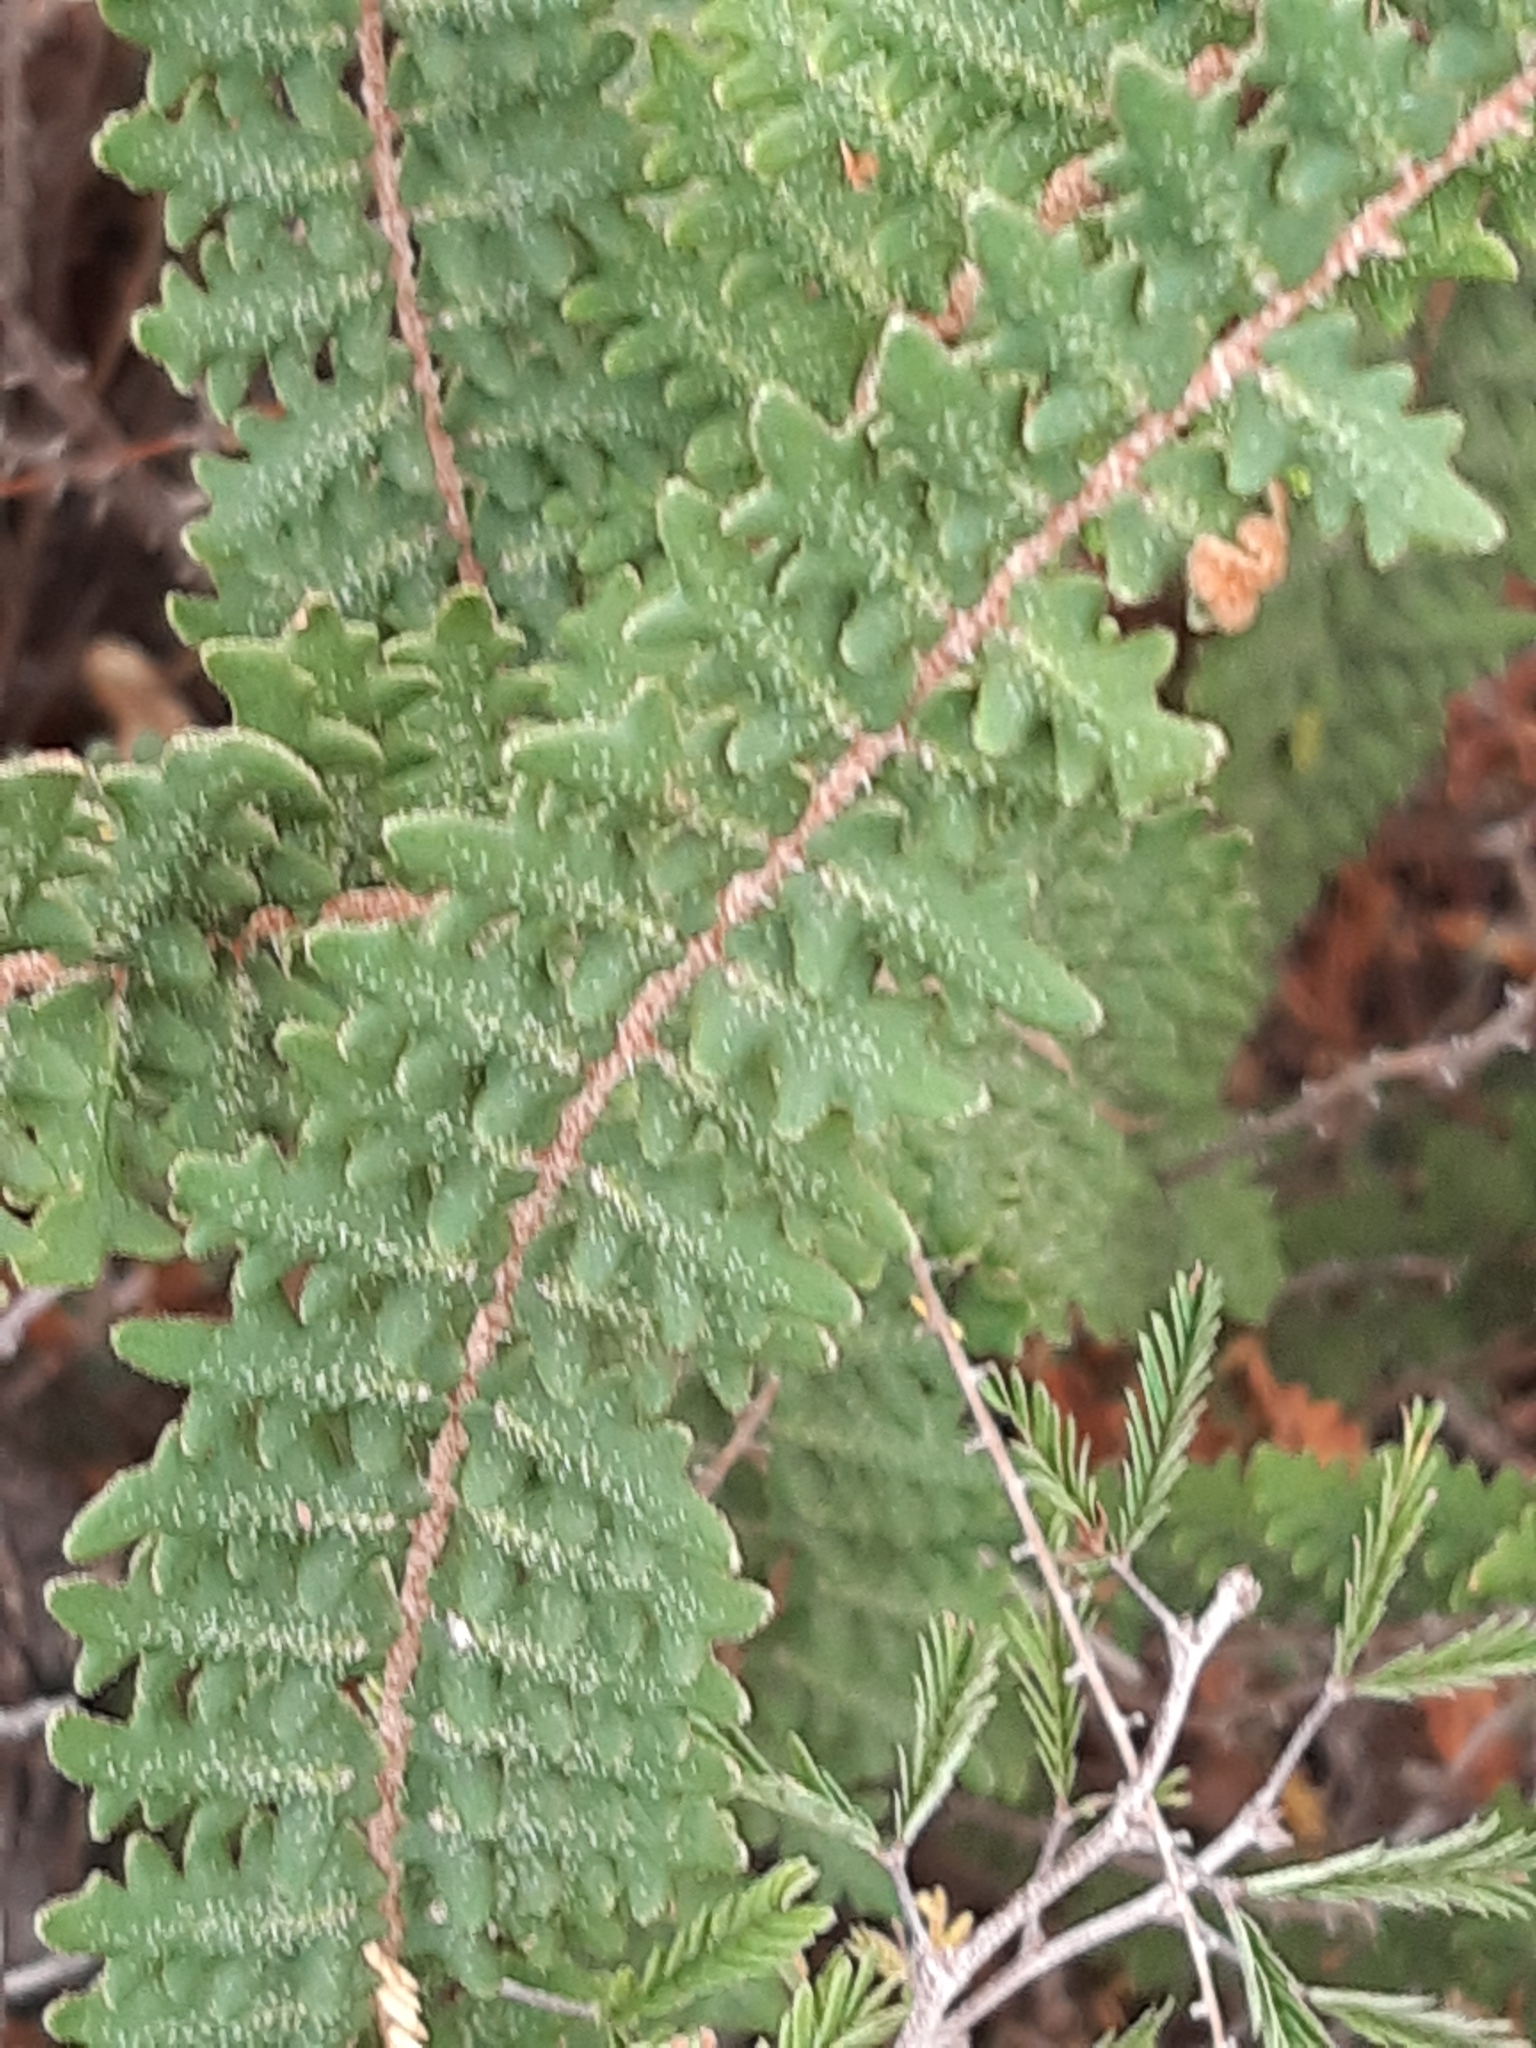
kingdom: Plantae
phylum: Tracheophyta
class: Polypodiopsida
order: Polypodiales
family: Pteridaceae
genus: Astrolepis
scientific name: Astrolepis sinuata
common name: Wavy scaly cloakfern
